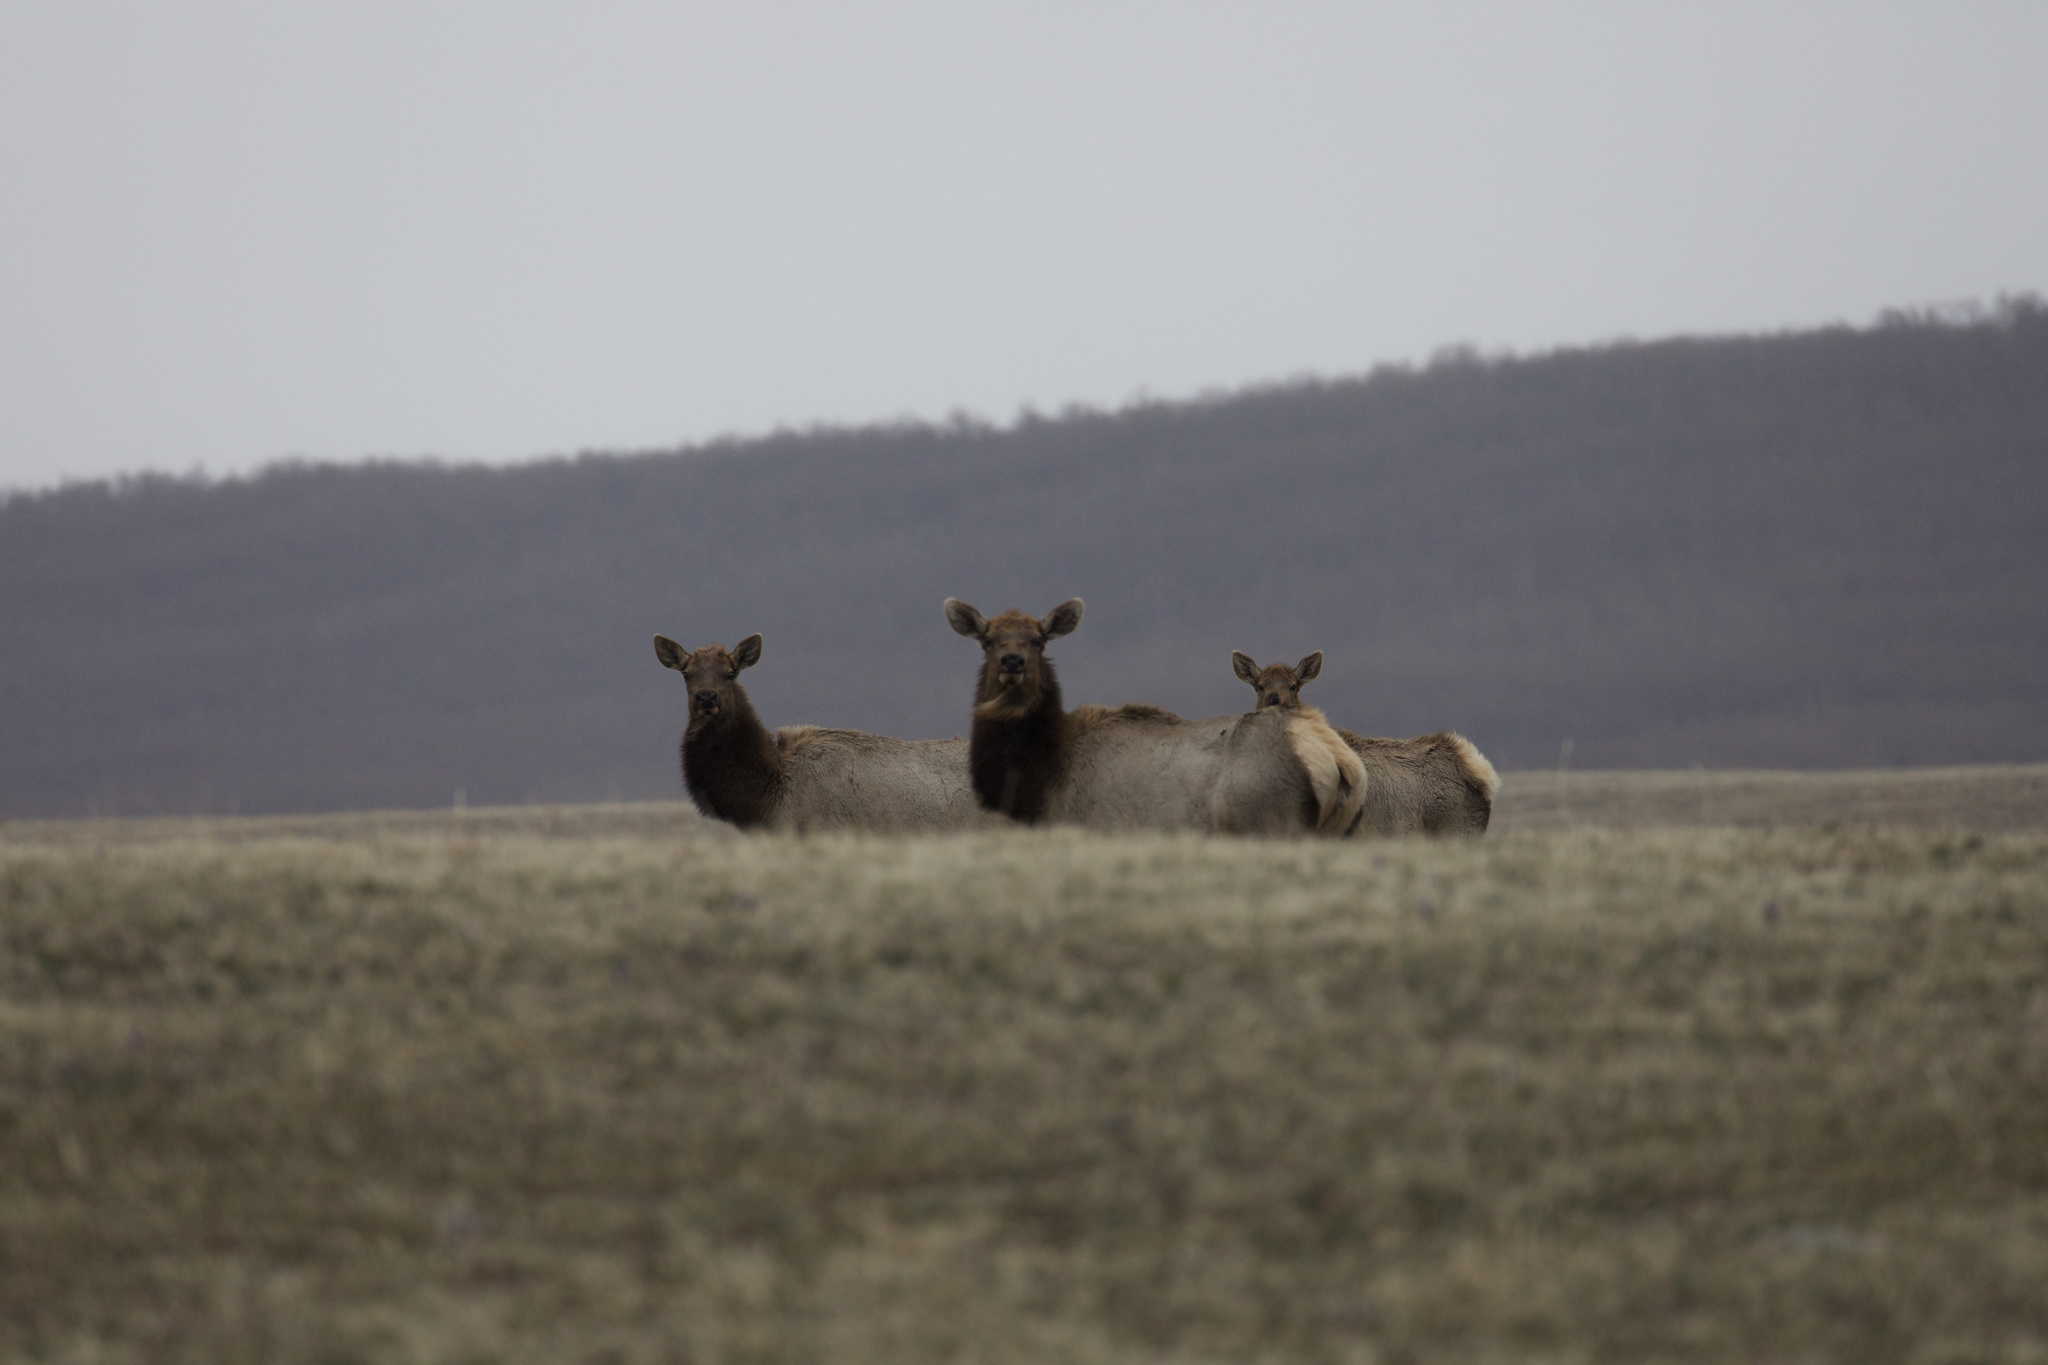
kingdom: Animalia
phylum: Chordata
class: Mammalia
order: Artiodactyla
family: Cervidae
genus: Cervus
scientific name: Cervus elaphus
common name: Red deer
